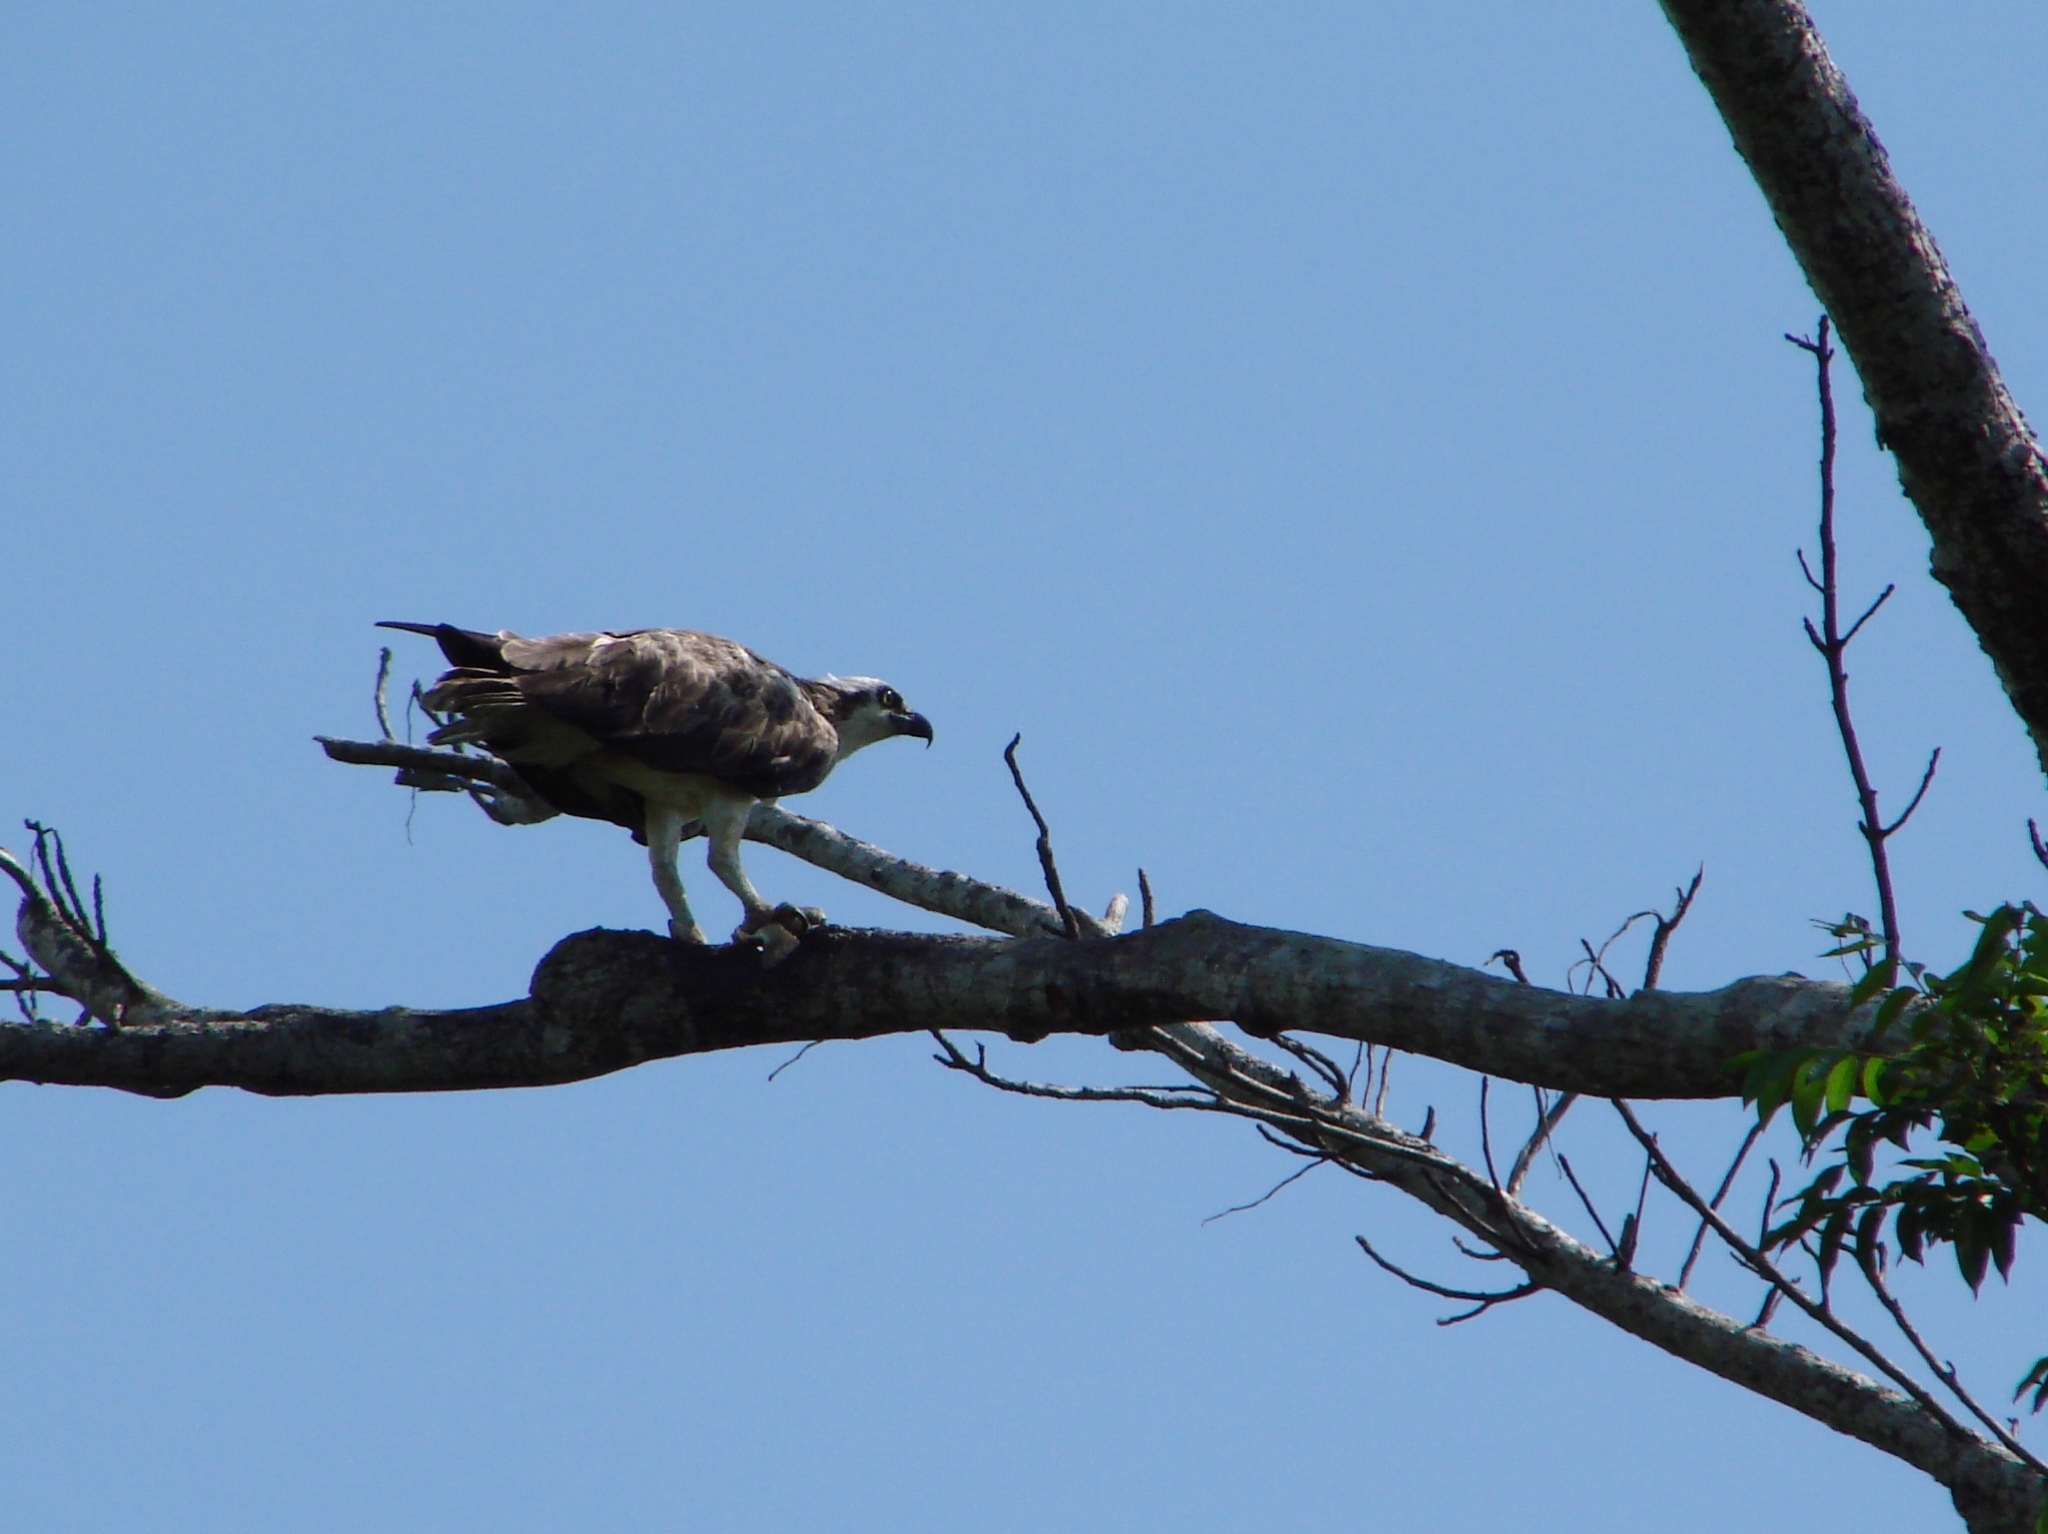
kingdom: Animalia
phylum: Chordata
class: Aves
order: Accipitriformes
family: Pandionidae
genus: Pandion
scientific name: Pandion haliaetus
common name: Osprey
